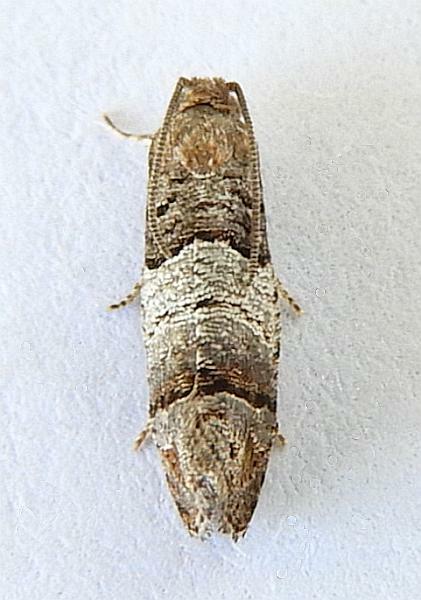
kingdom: Animalia
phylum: Arthropoda
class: Insecta
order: Lepidoptera
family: Tortricidae
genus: Larisa
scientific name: Larisa subsolana
